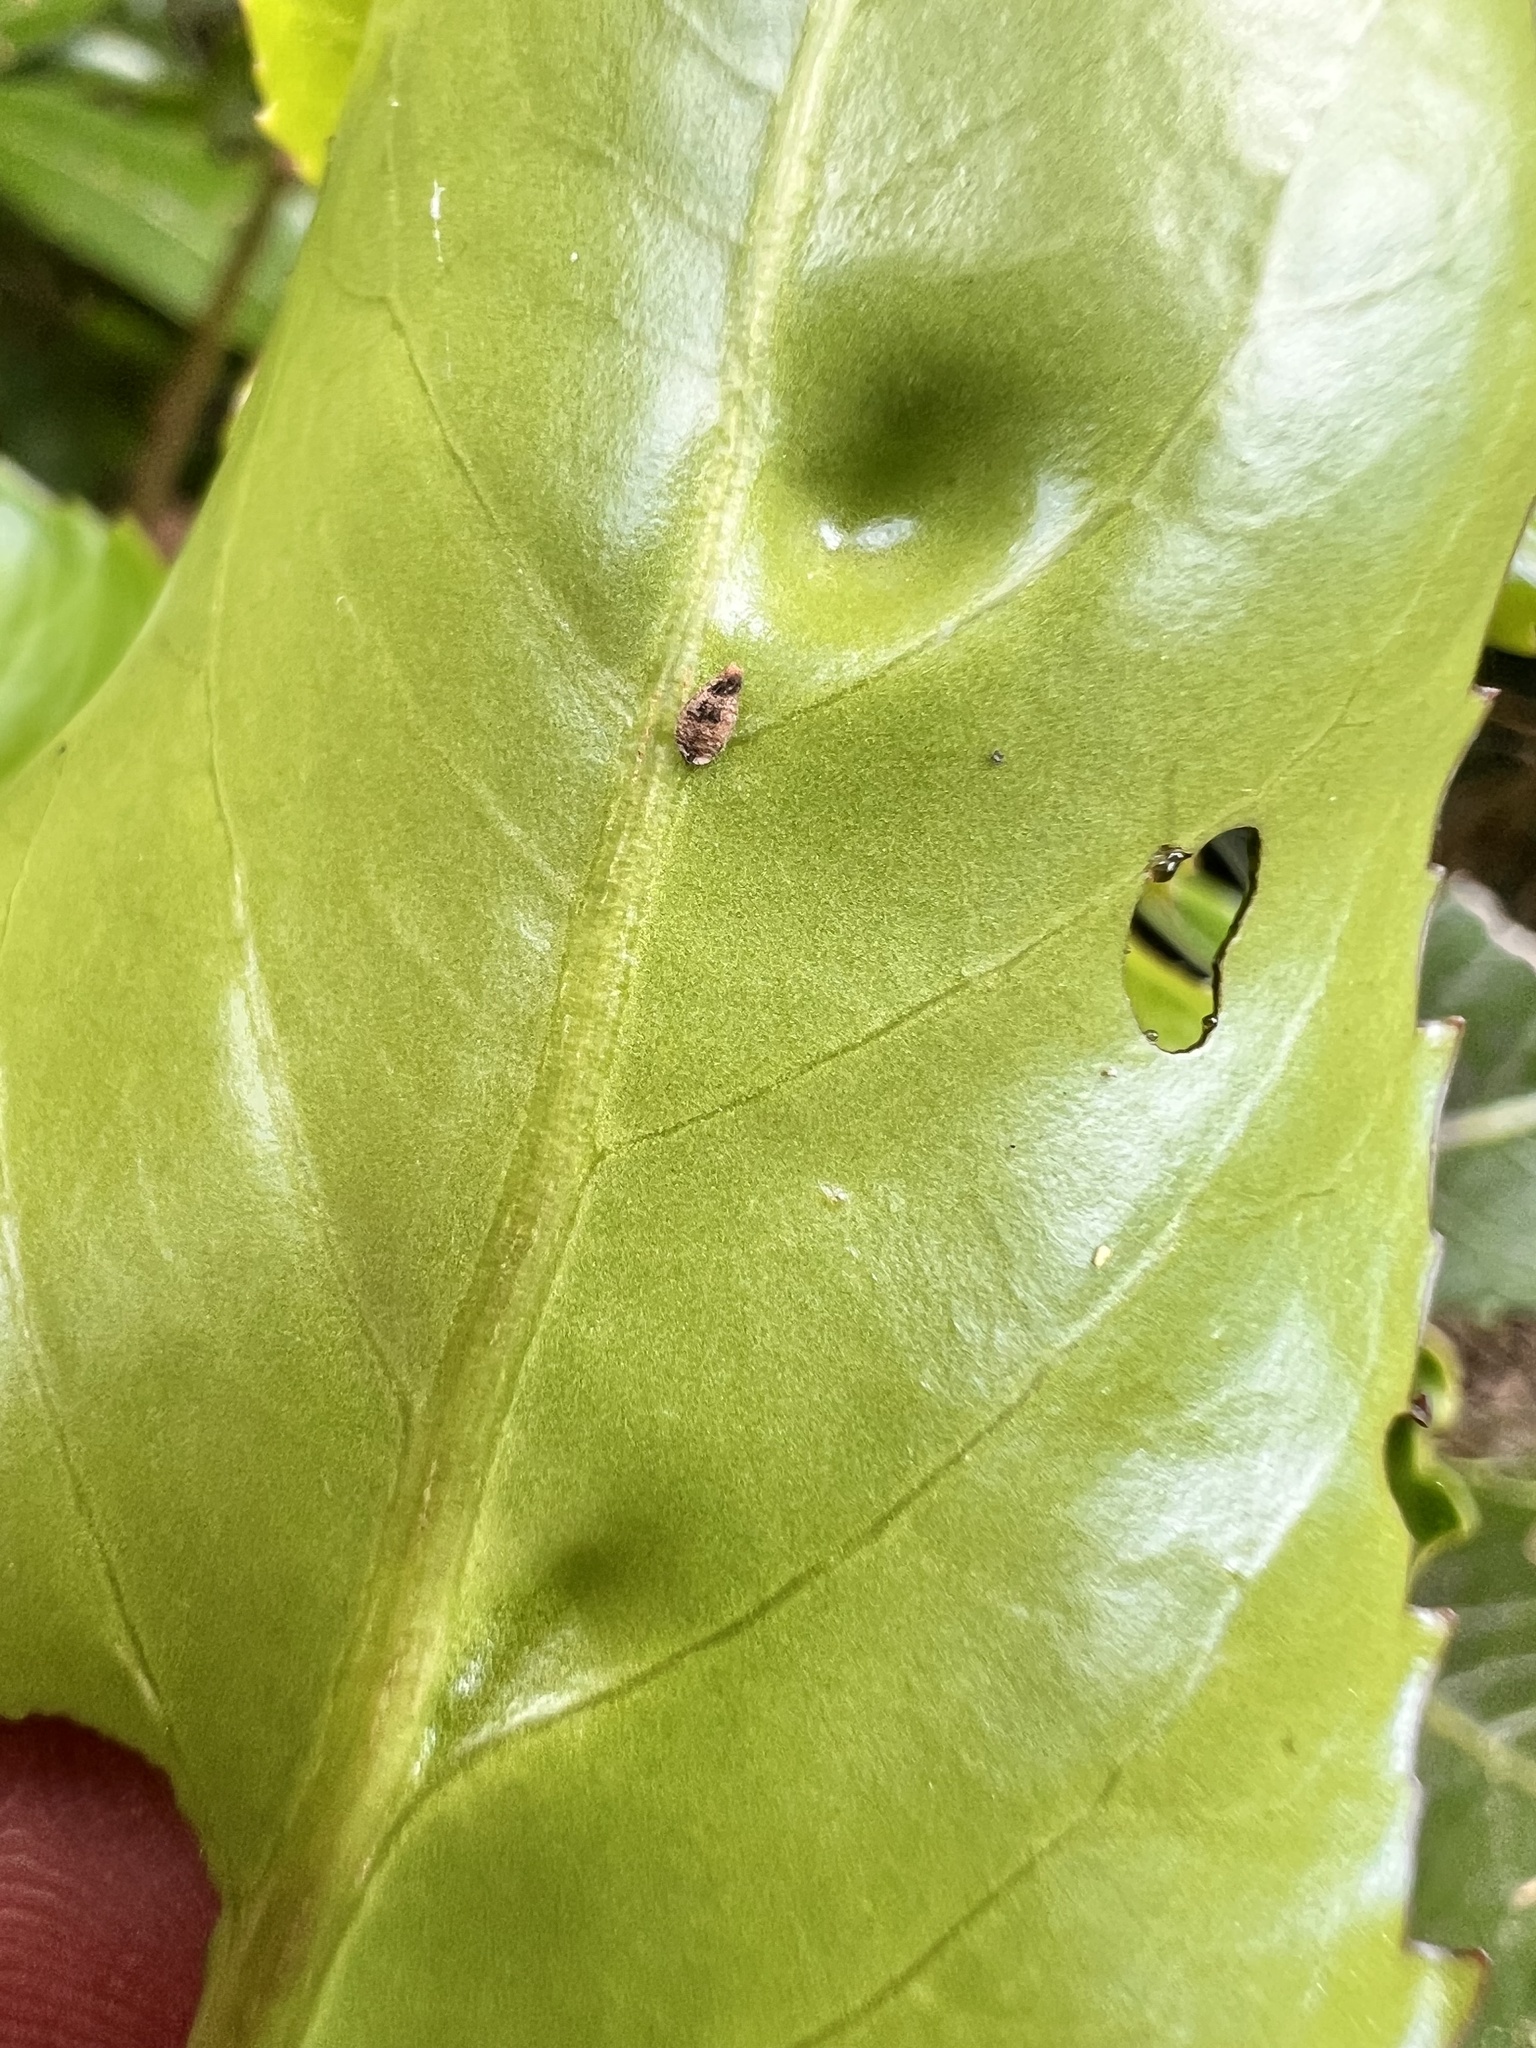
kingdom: Plantae
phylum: Tracheophyta
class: Magnoliopsida
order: Apiales
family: Araliaceae
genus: Neopanax
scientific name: Neopanax arboreus
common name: Five-fingers
